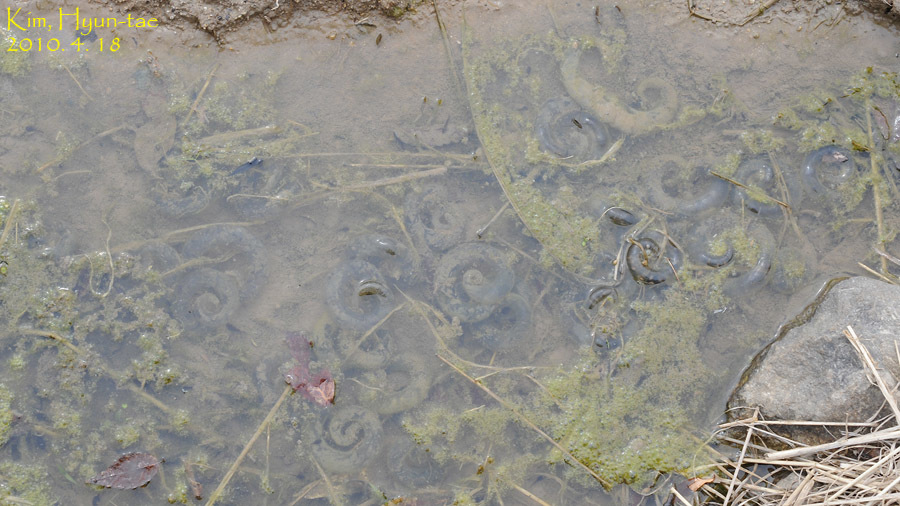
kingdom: Animalia
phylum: Chordata
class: Amphibia
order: Caudata
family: Hynobiidae
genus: Hynobius
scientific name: Hynobius leechii
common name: Gensan salamander
